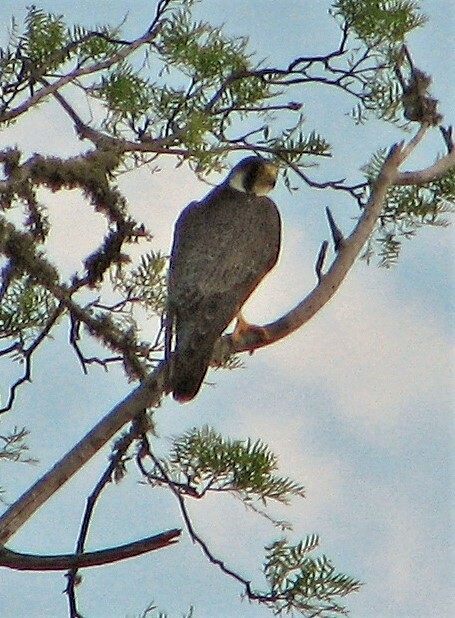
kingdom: Animalia
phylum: Chordata
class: Aves
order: Falconiformes
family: Falconidae
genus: Falco
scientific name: Falco peregrinus
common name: Peregrine falcon
